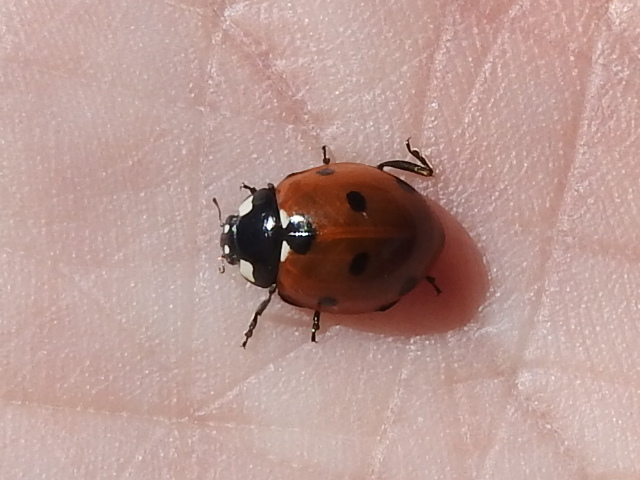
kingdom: Animalia
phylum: Arthropoda
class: Insecta
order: Coleoptera
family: Coccinellidae
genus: Coccinella
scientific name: Coccinella septempunctata
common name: Sevenspotted lady beetle
